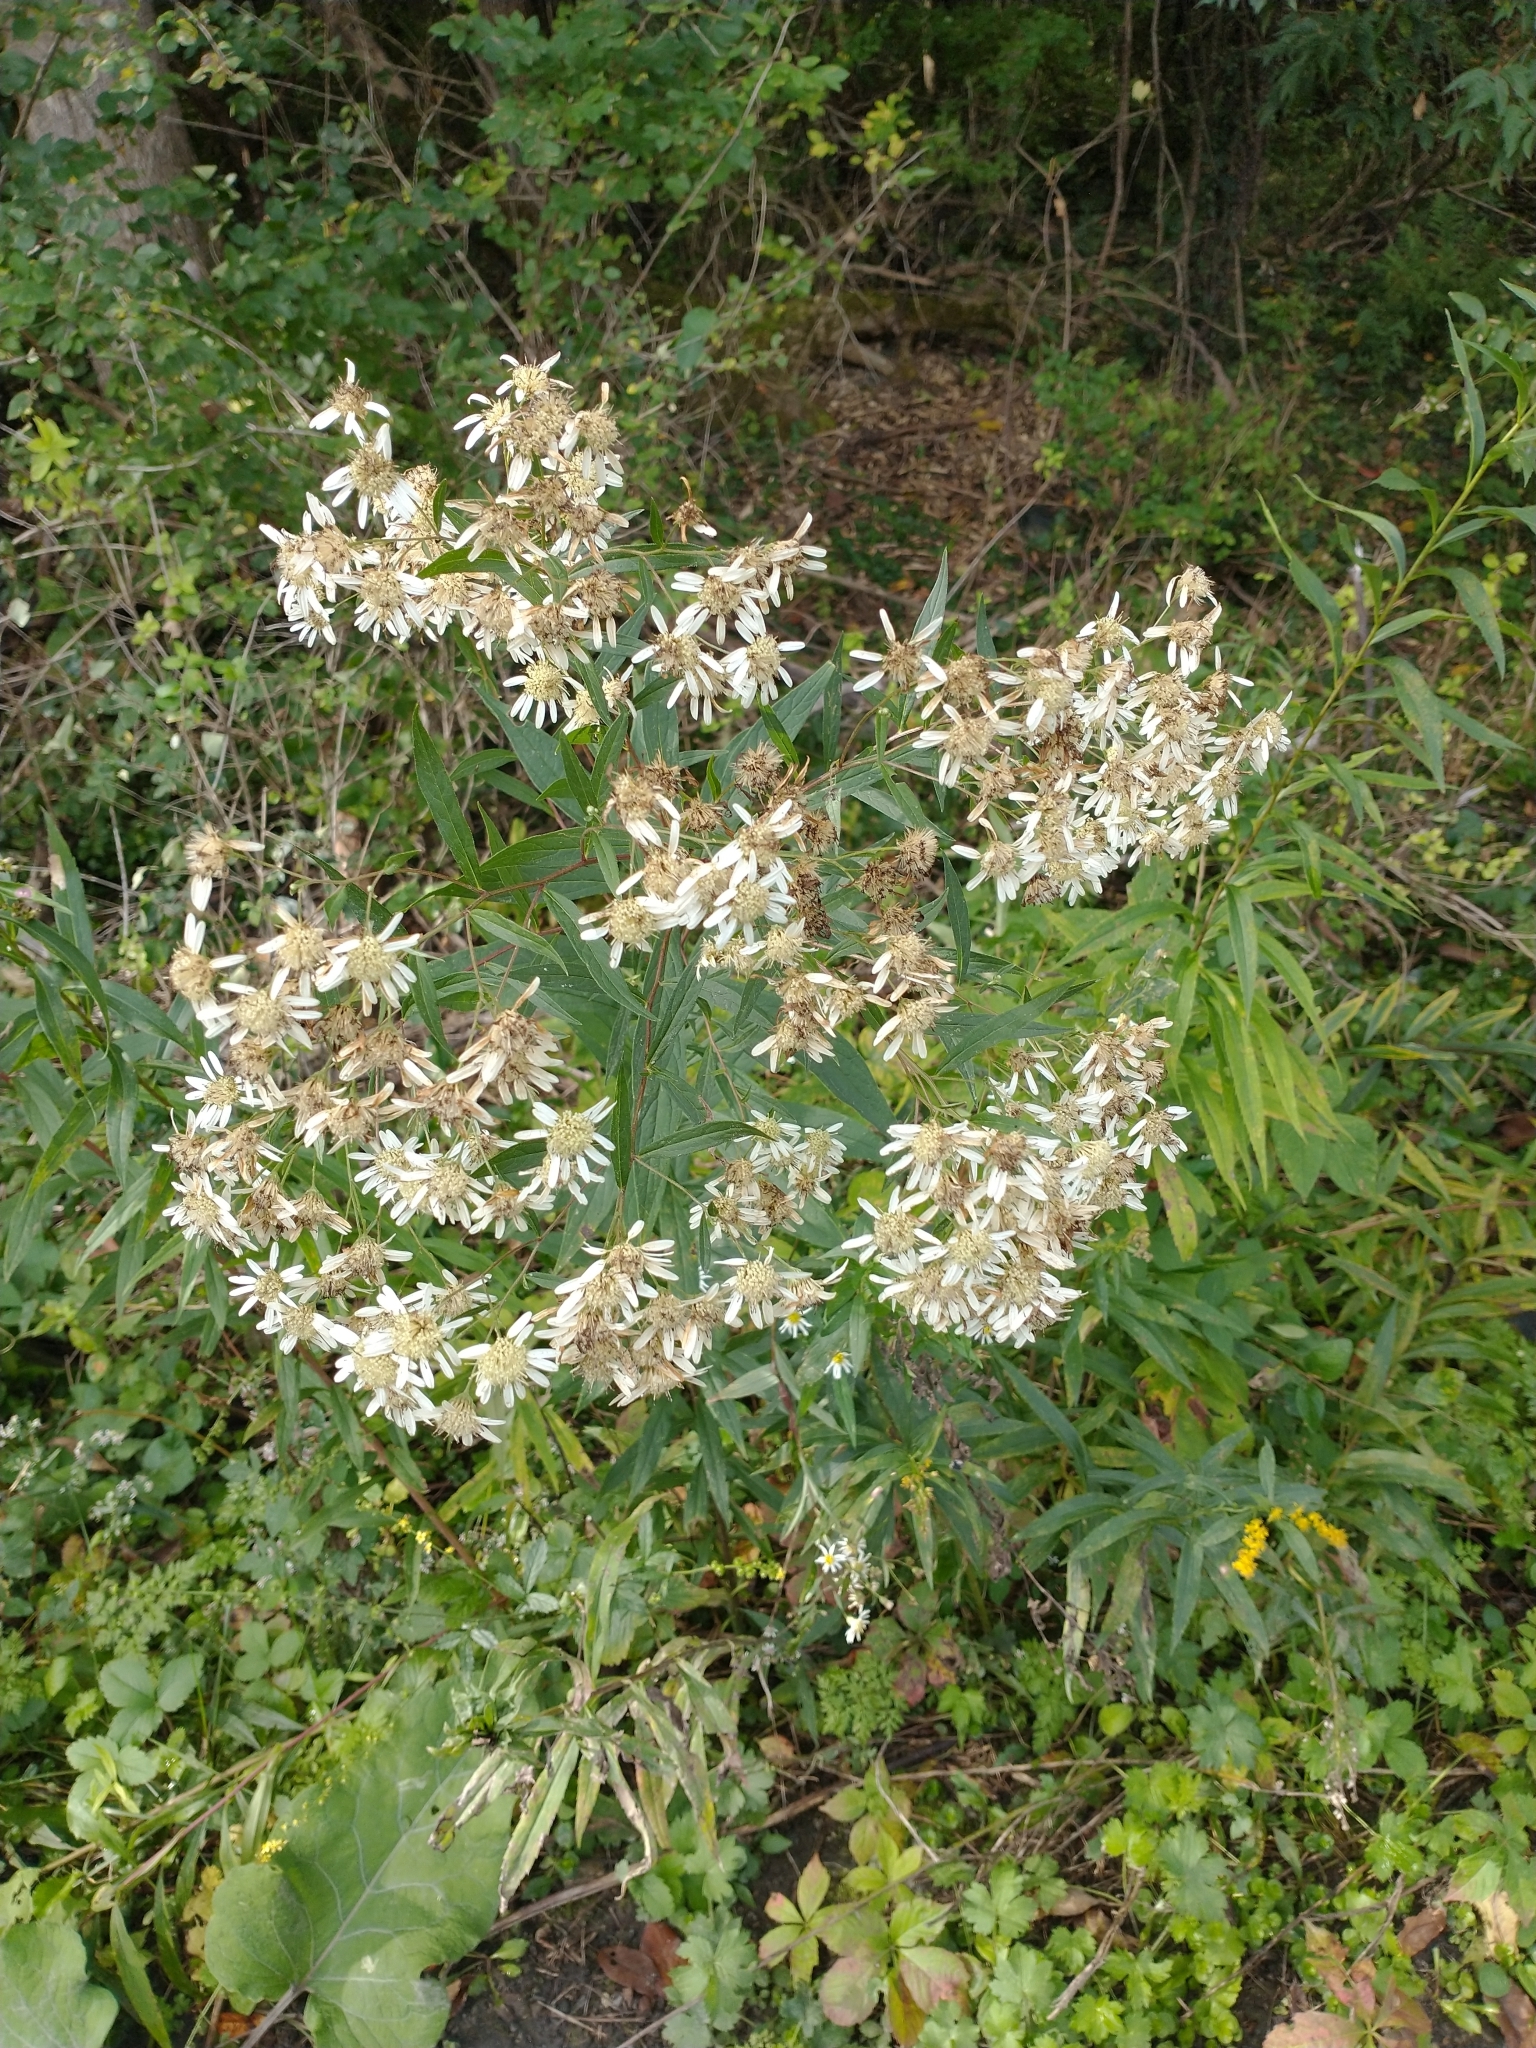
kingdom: Plantae
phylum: Tracheophyta
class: Magnoliopsida
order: Asterales
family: Asteraceae
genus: Doellingeria
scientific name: Doellingeria umbellata
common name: Flat-top white aster
